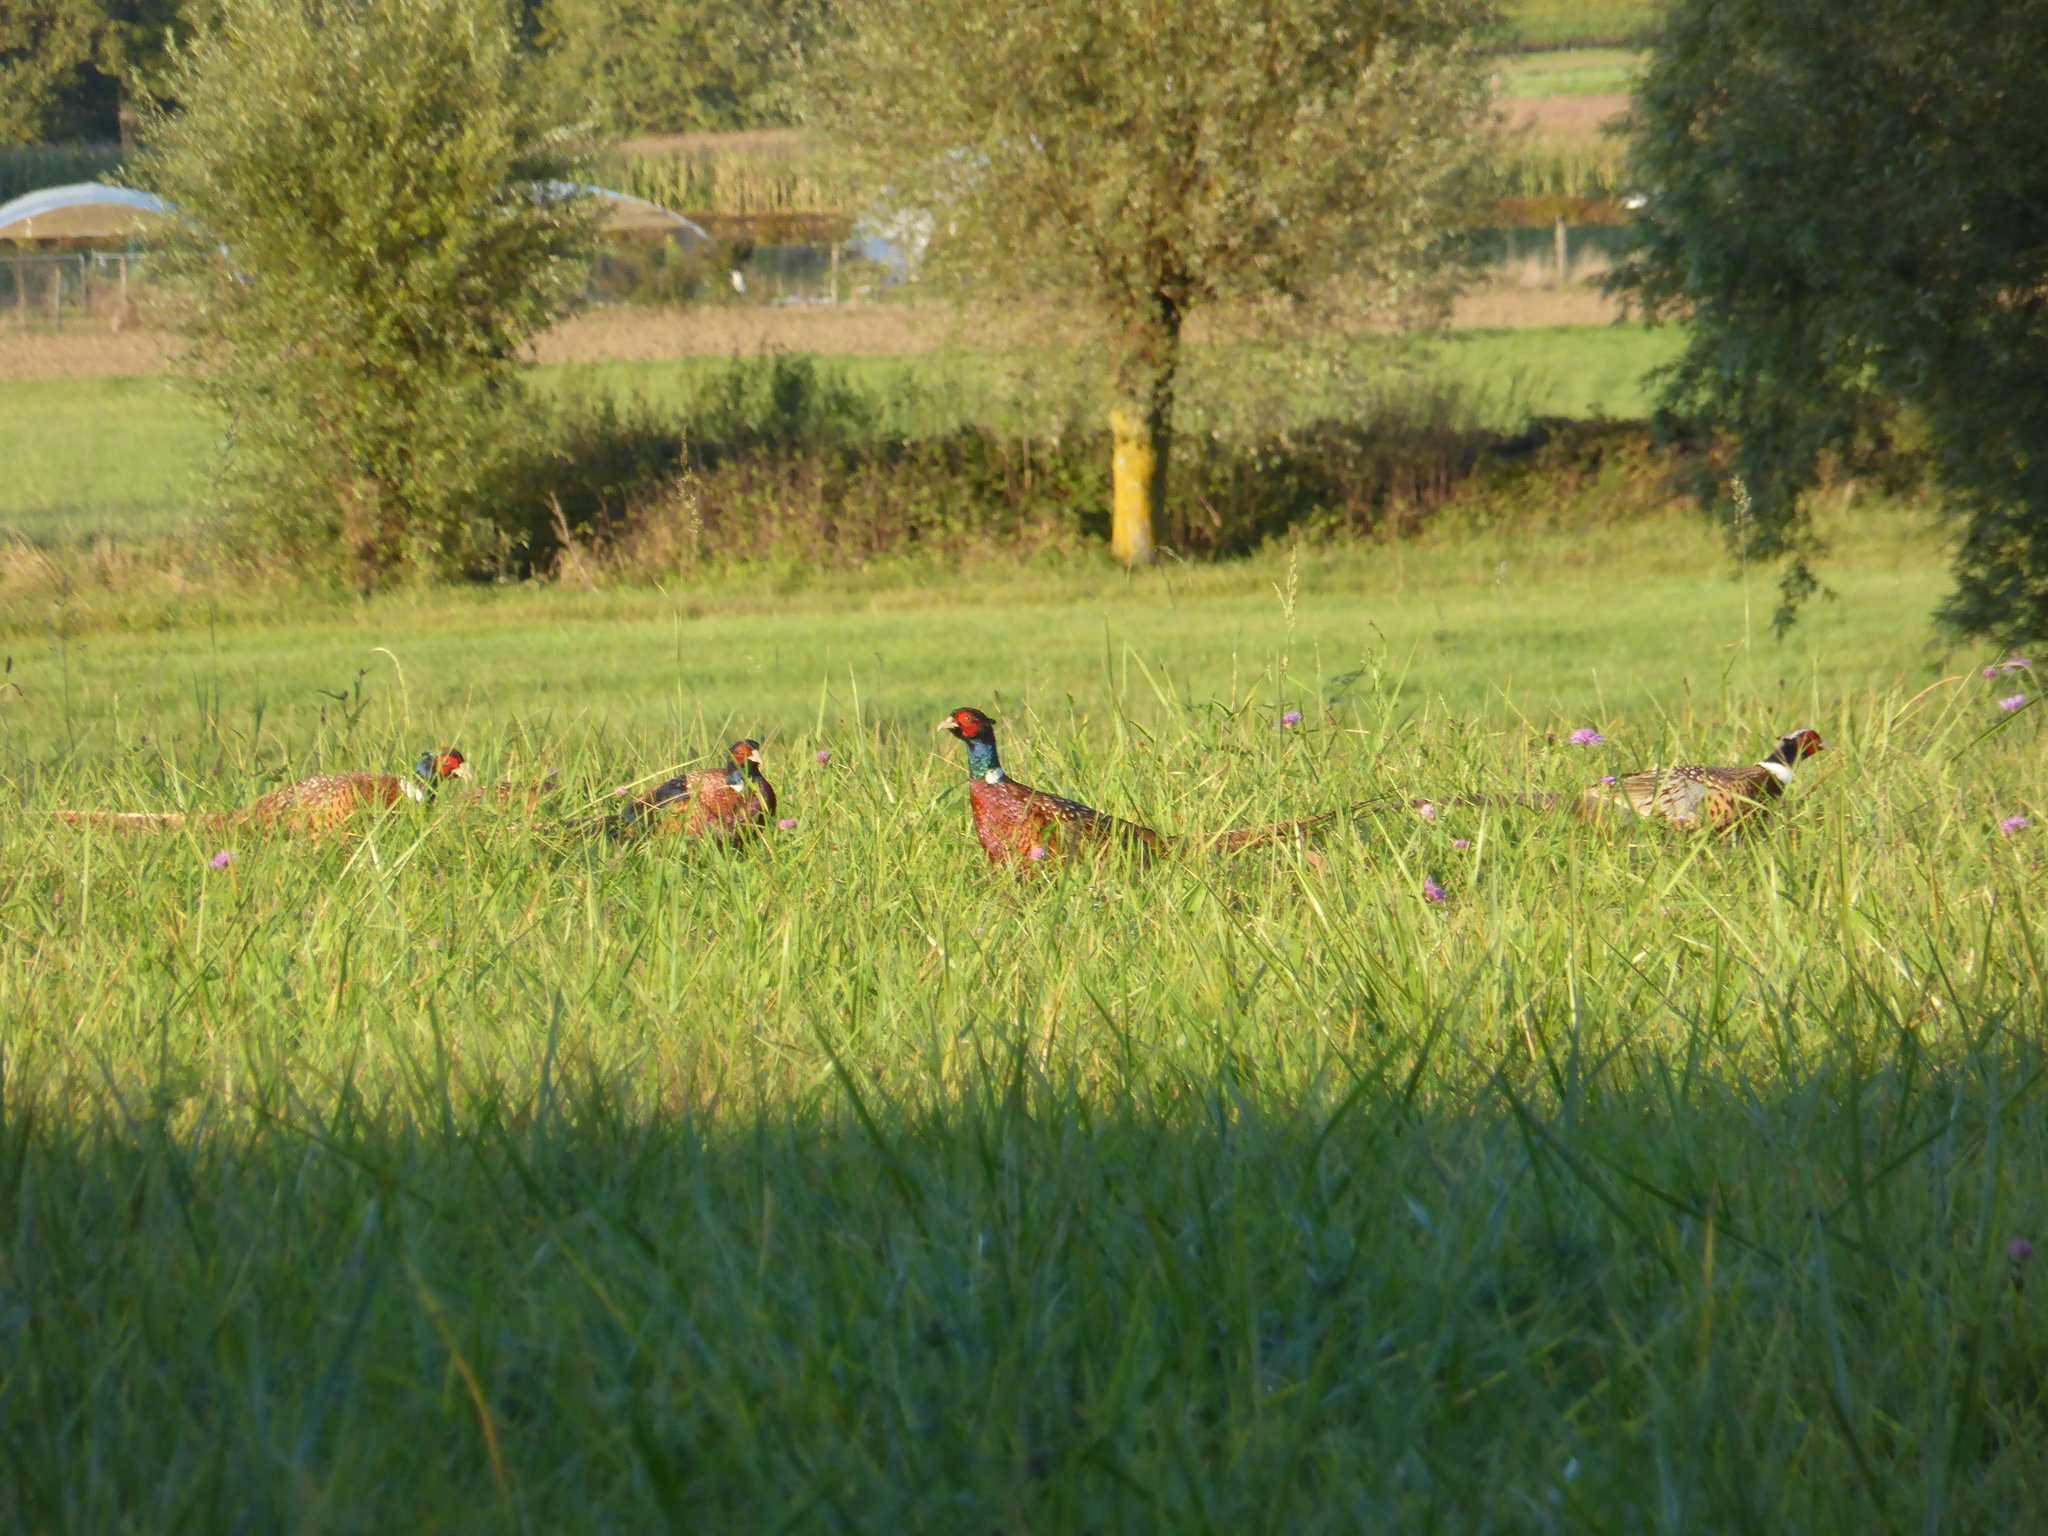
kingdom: Animalia
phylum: Chordata
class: Aves
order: Galliformes
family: Phasianidae
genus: Phasianus
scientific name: Phasianus colchicus
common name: Common pheasant
